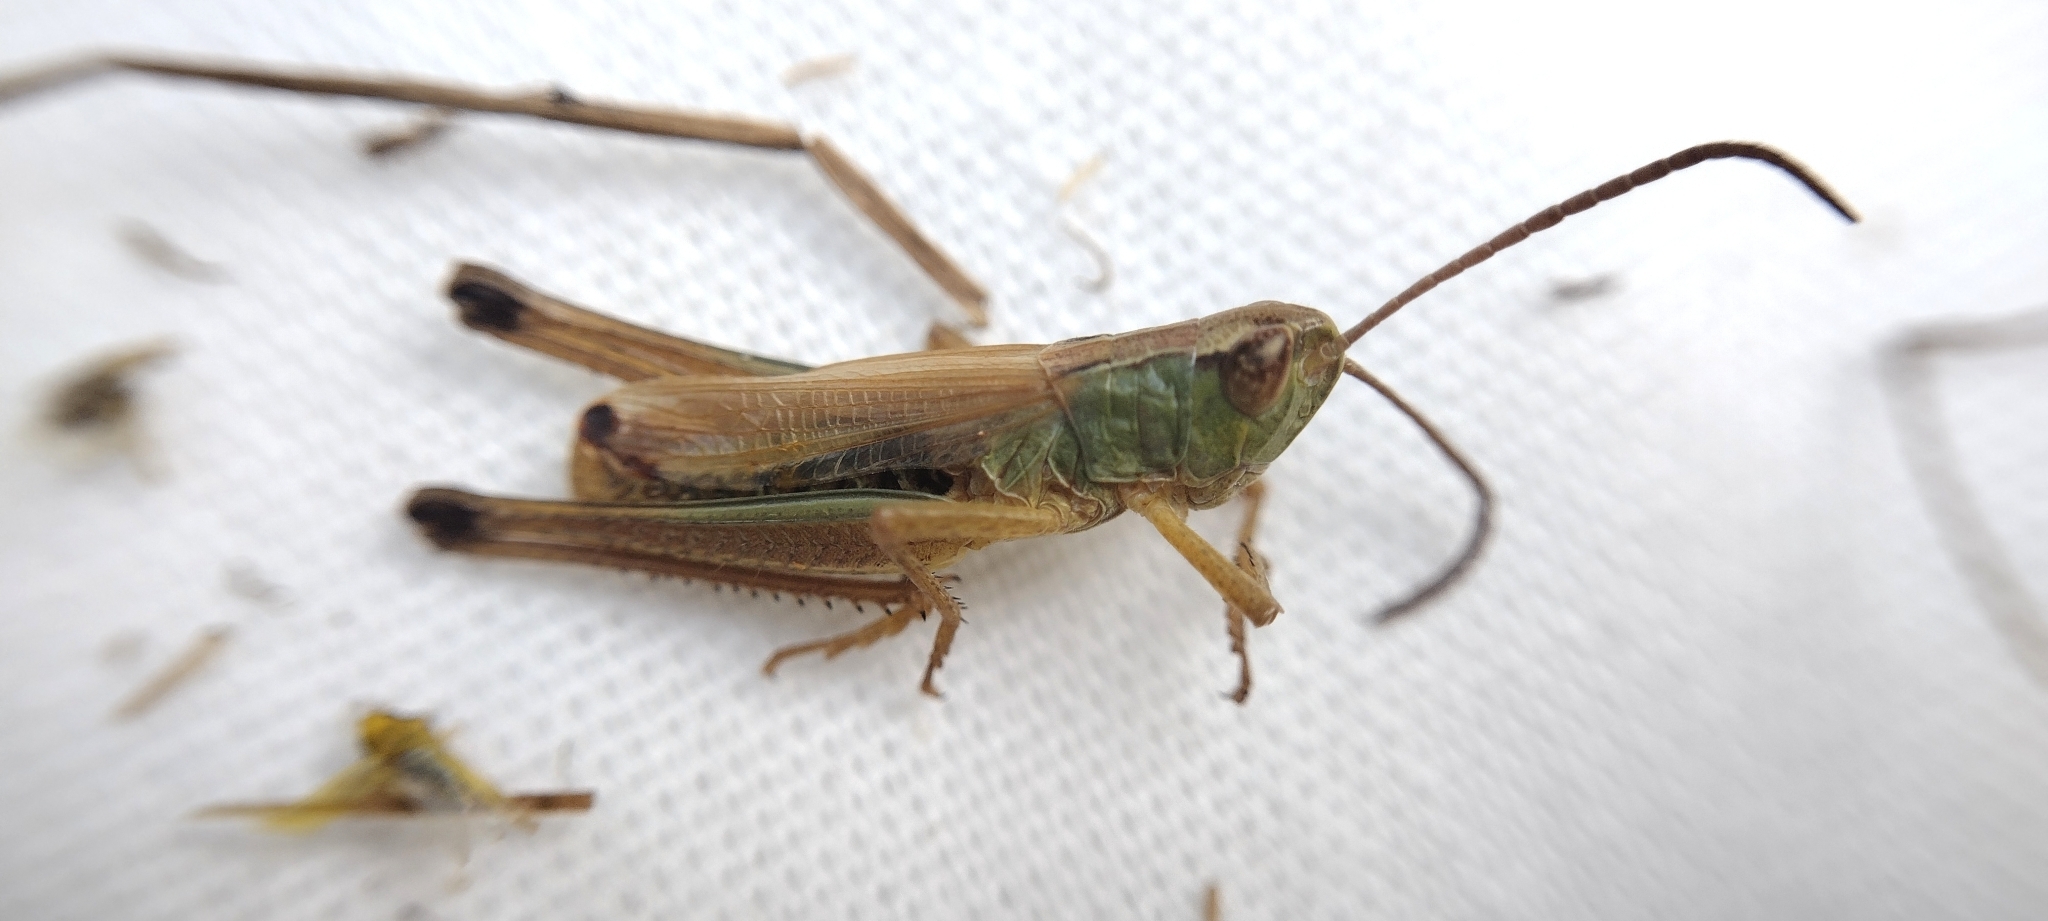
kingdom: Animalia
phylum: Arthropoda
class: Insecta
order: Orthoptera
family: Acrididae
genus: Pseudochorthippus
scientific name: Pseudochorthippus parallelus
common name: Meadow grasshopper
